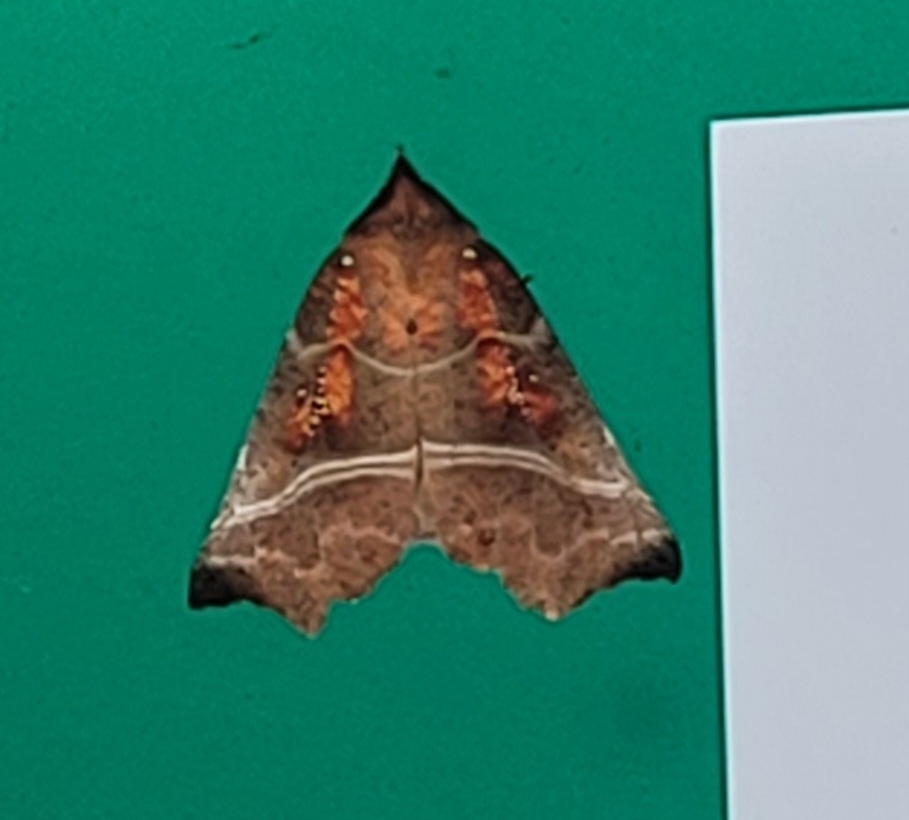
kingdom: Animalia
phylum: Arthropoda
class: Insecta
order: Lepidoptera
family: Erebidae
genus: Scoliopteryx
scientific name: Scoliopteryx libatrix
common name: Herald
